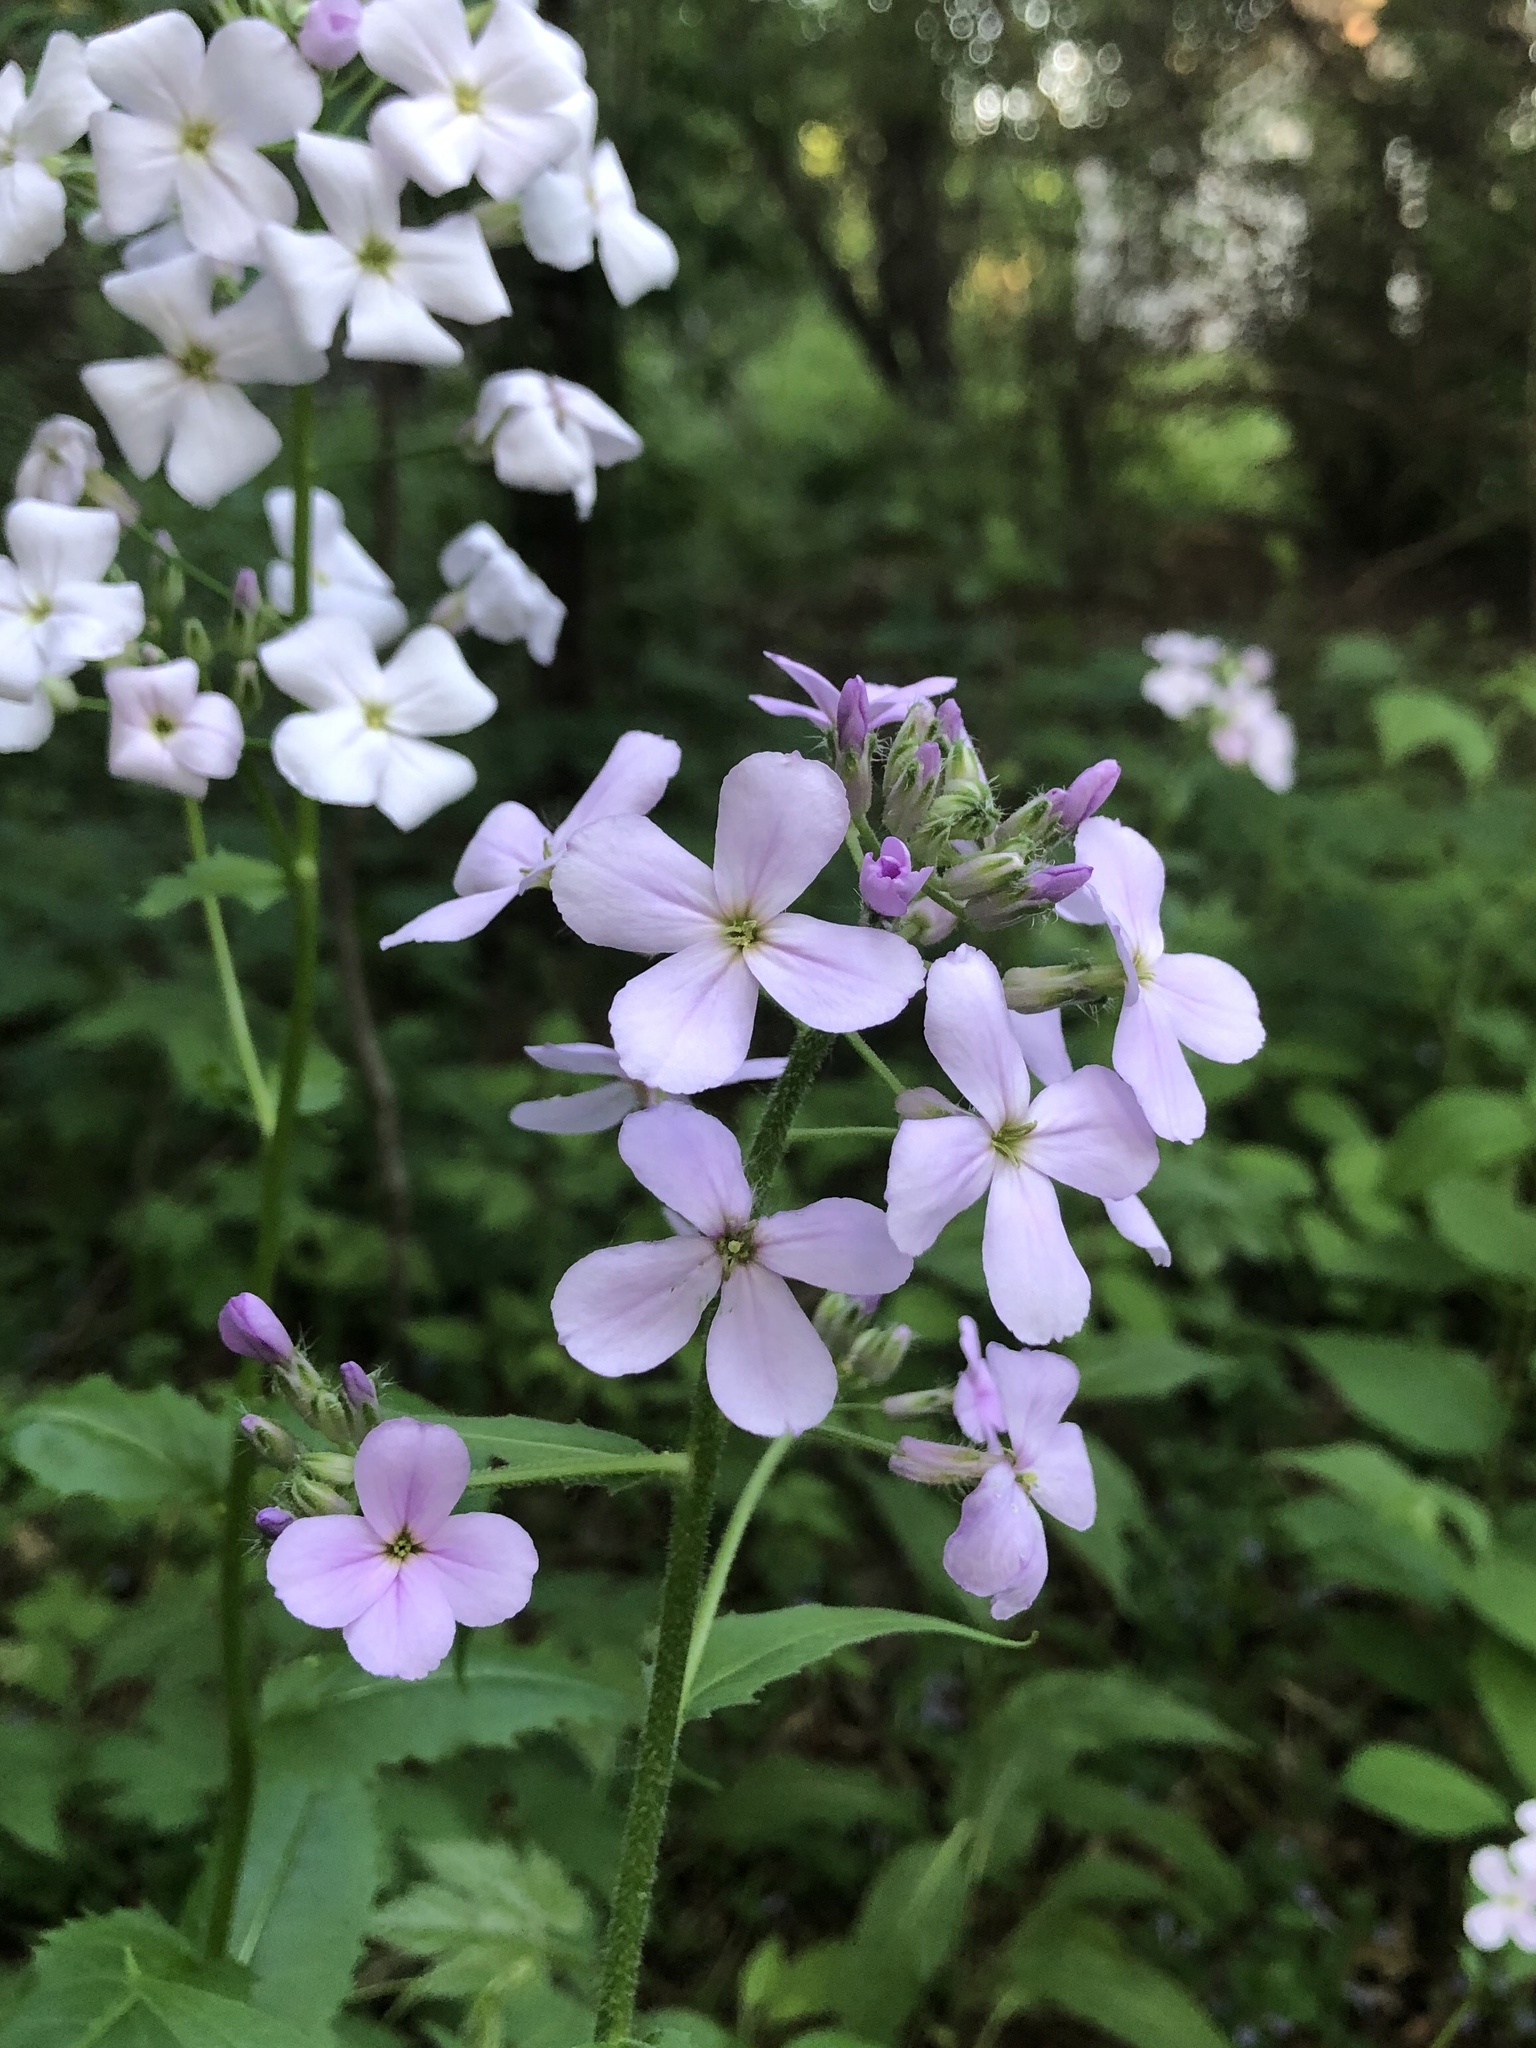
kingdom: Plantae
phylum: Tracheophyta
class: Magnoliopsida
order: Brassicales
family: Brassicaceae
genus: Hesperis
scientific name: Hesperis matronalis
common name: Dame's-violet
